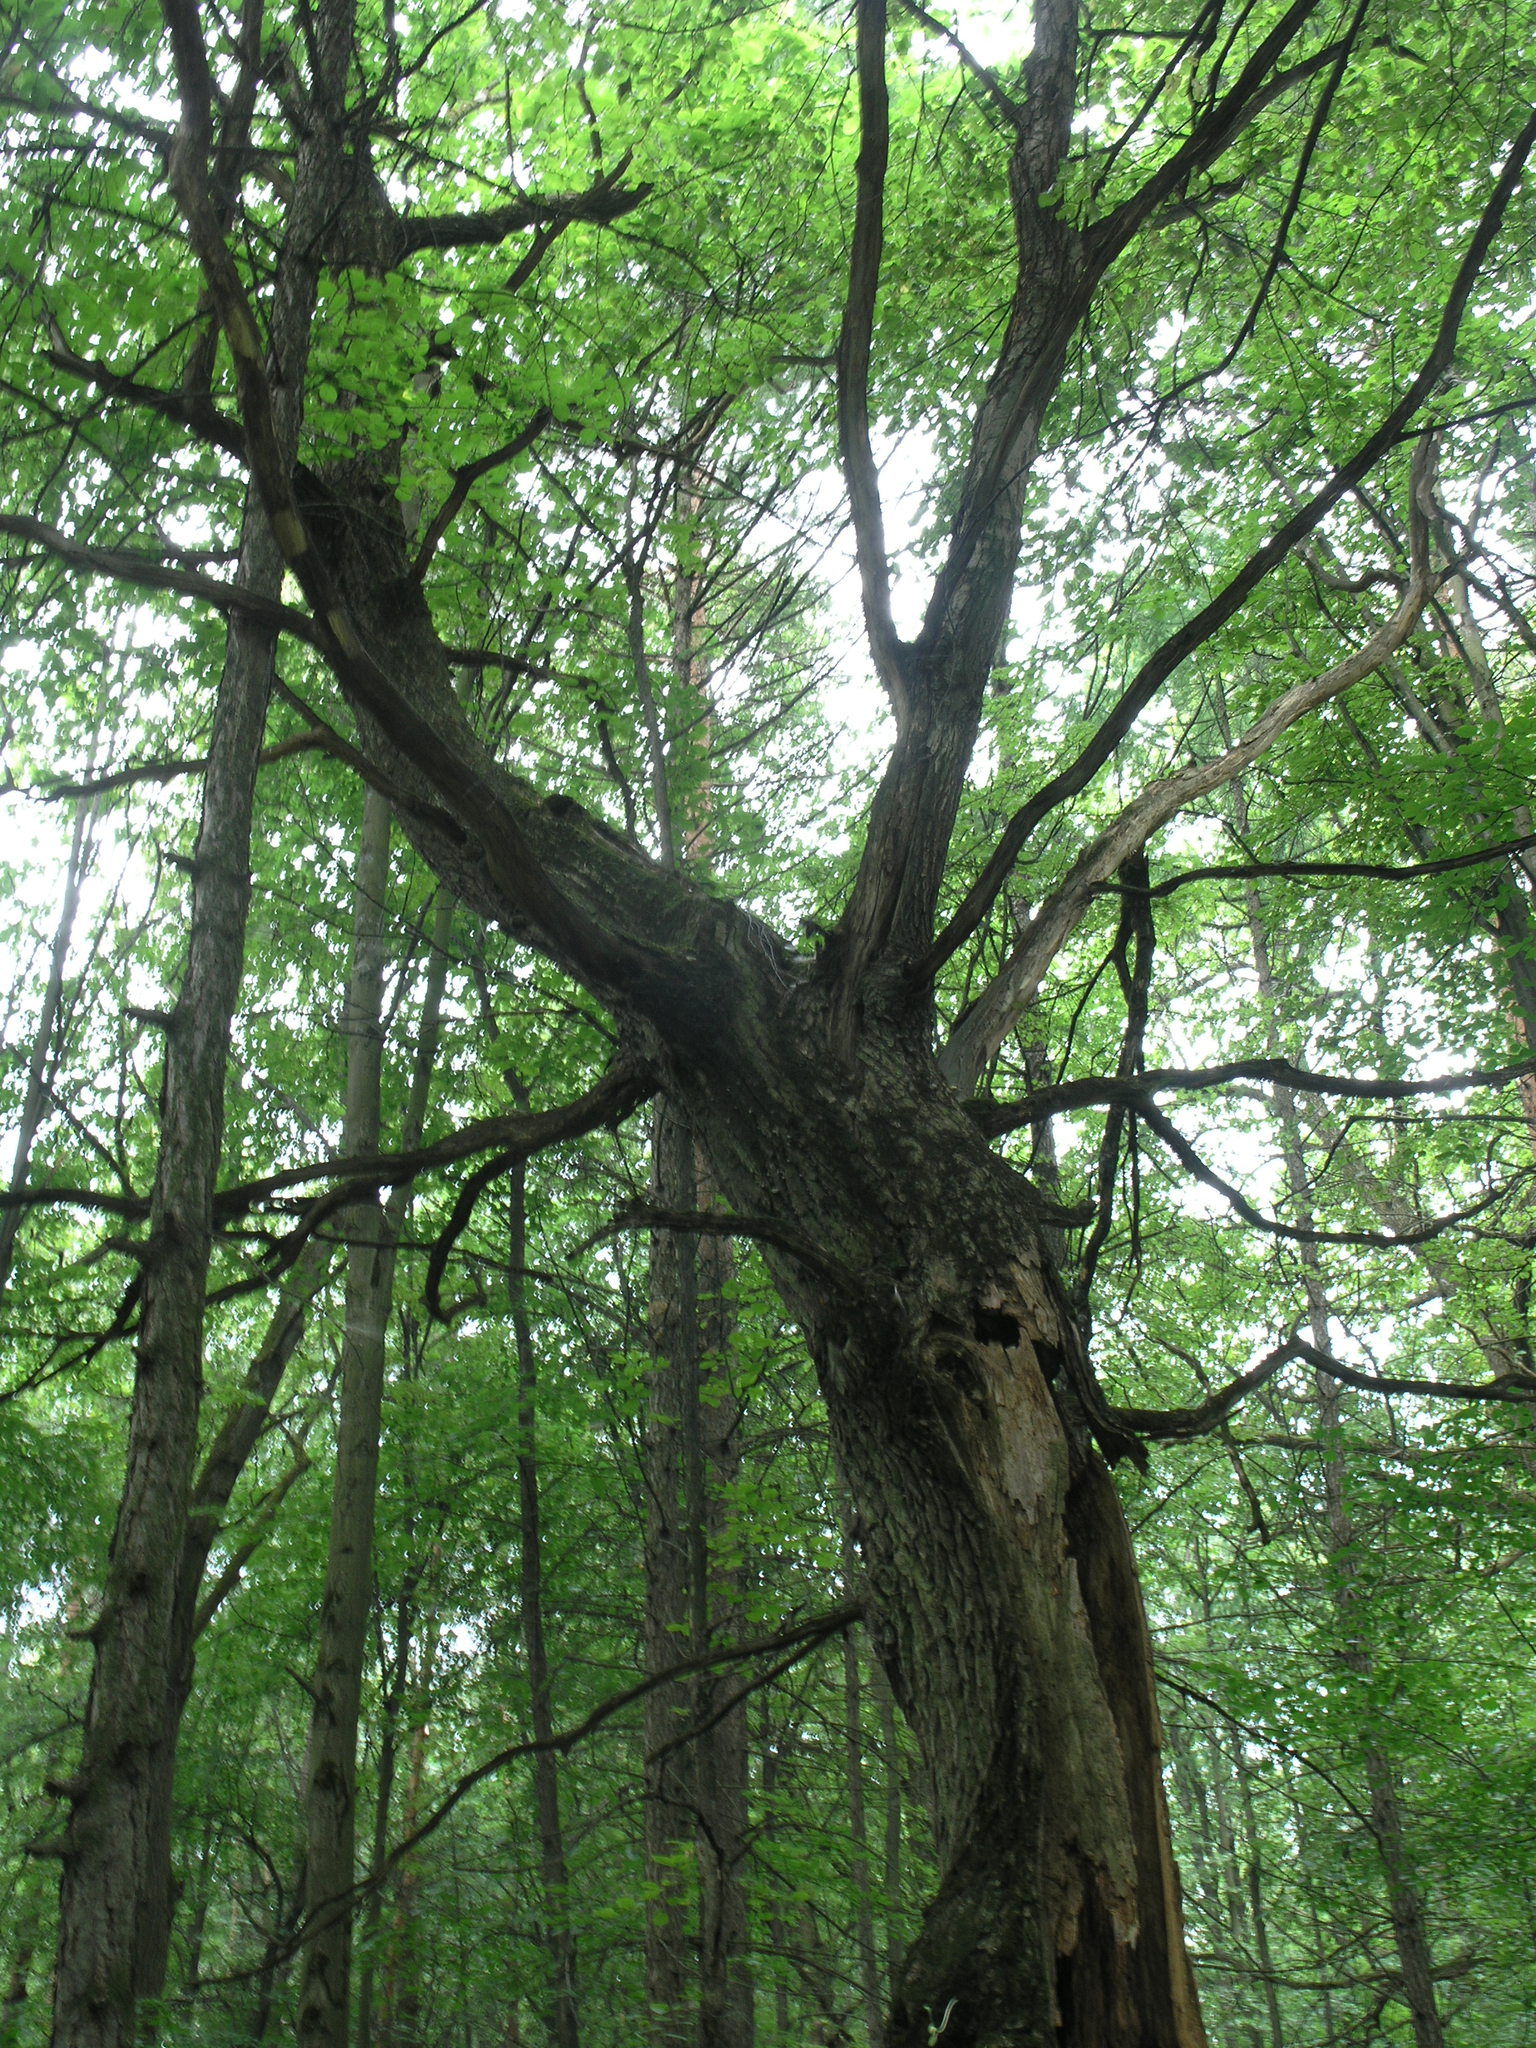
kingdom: Plantae
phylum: Tracheophyta
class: Magnoliopsida
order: Fagales
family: Fagaceae
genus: Quercus
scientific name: Quercus robur
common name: Pedunculate oak
